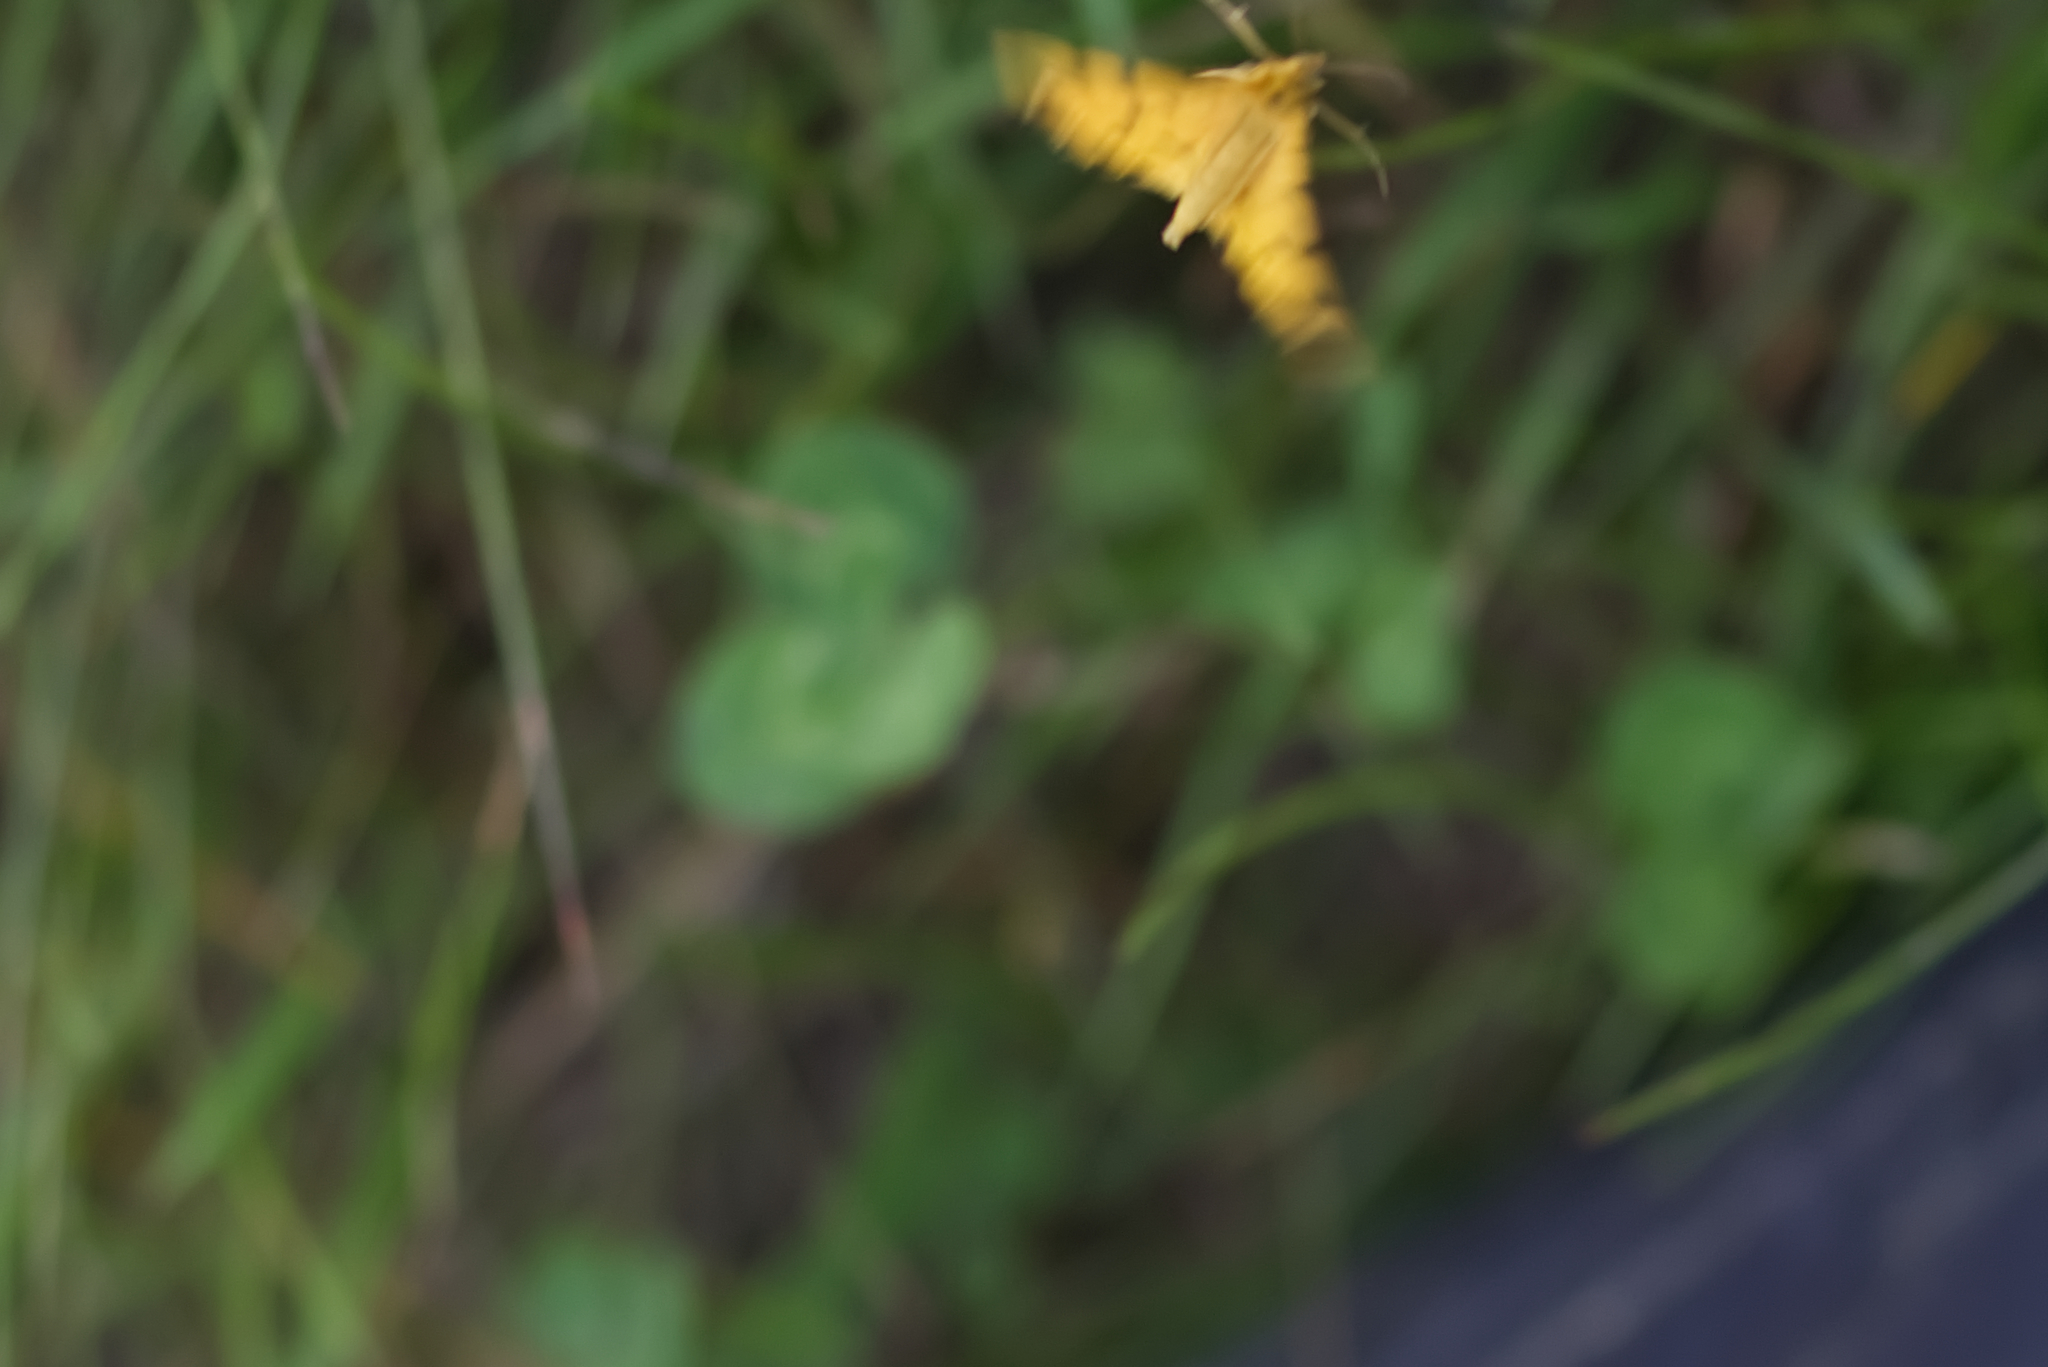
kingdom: Animalia
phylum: Arthropoda
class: Insecta
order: Lepidoptera
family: Geometridae
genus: Pseudopanthera
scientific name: Pseudopanthera macularia
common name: Speckled yellow
